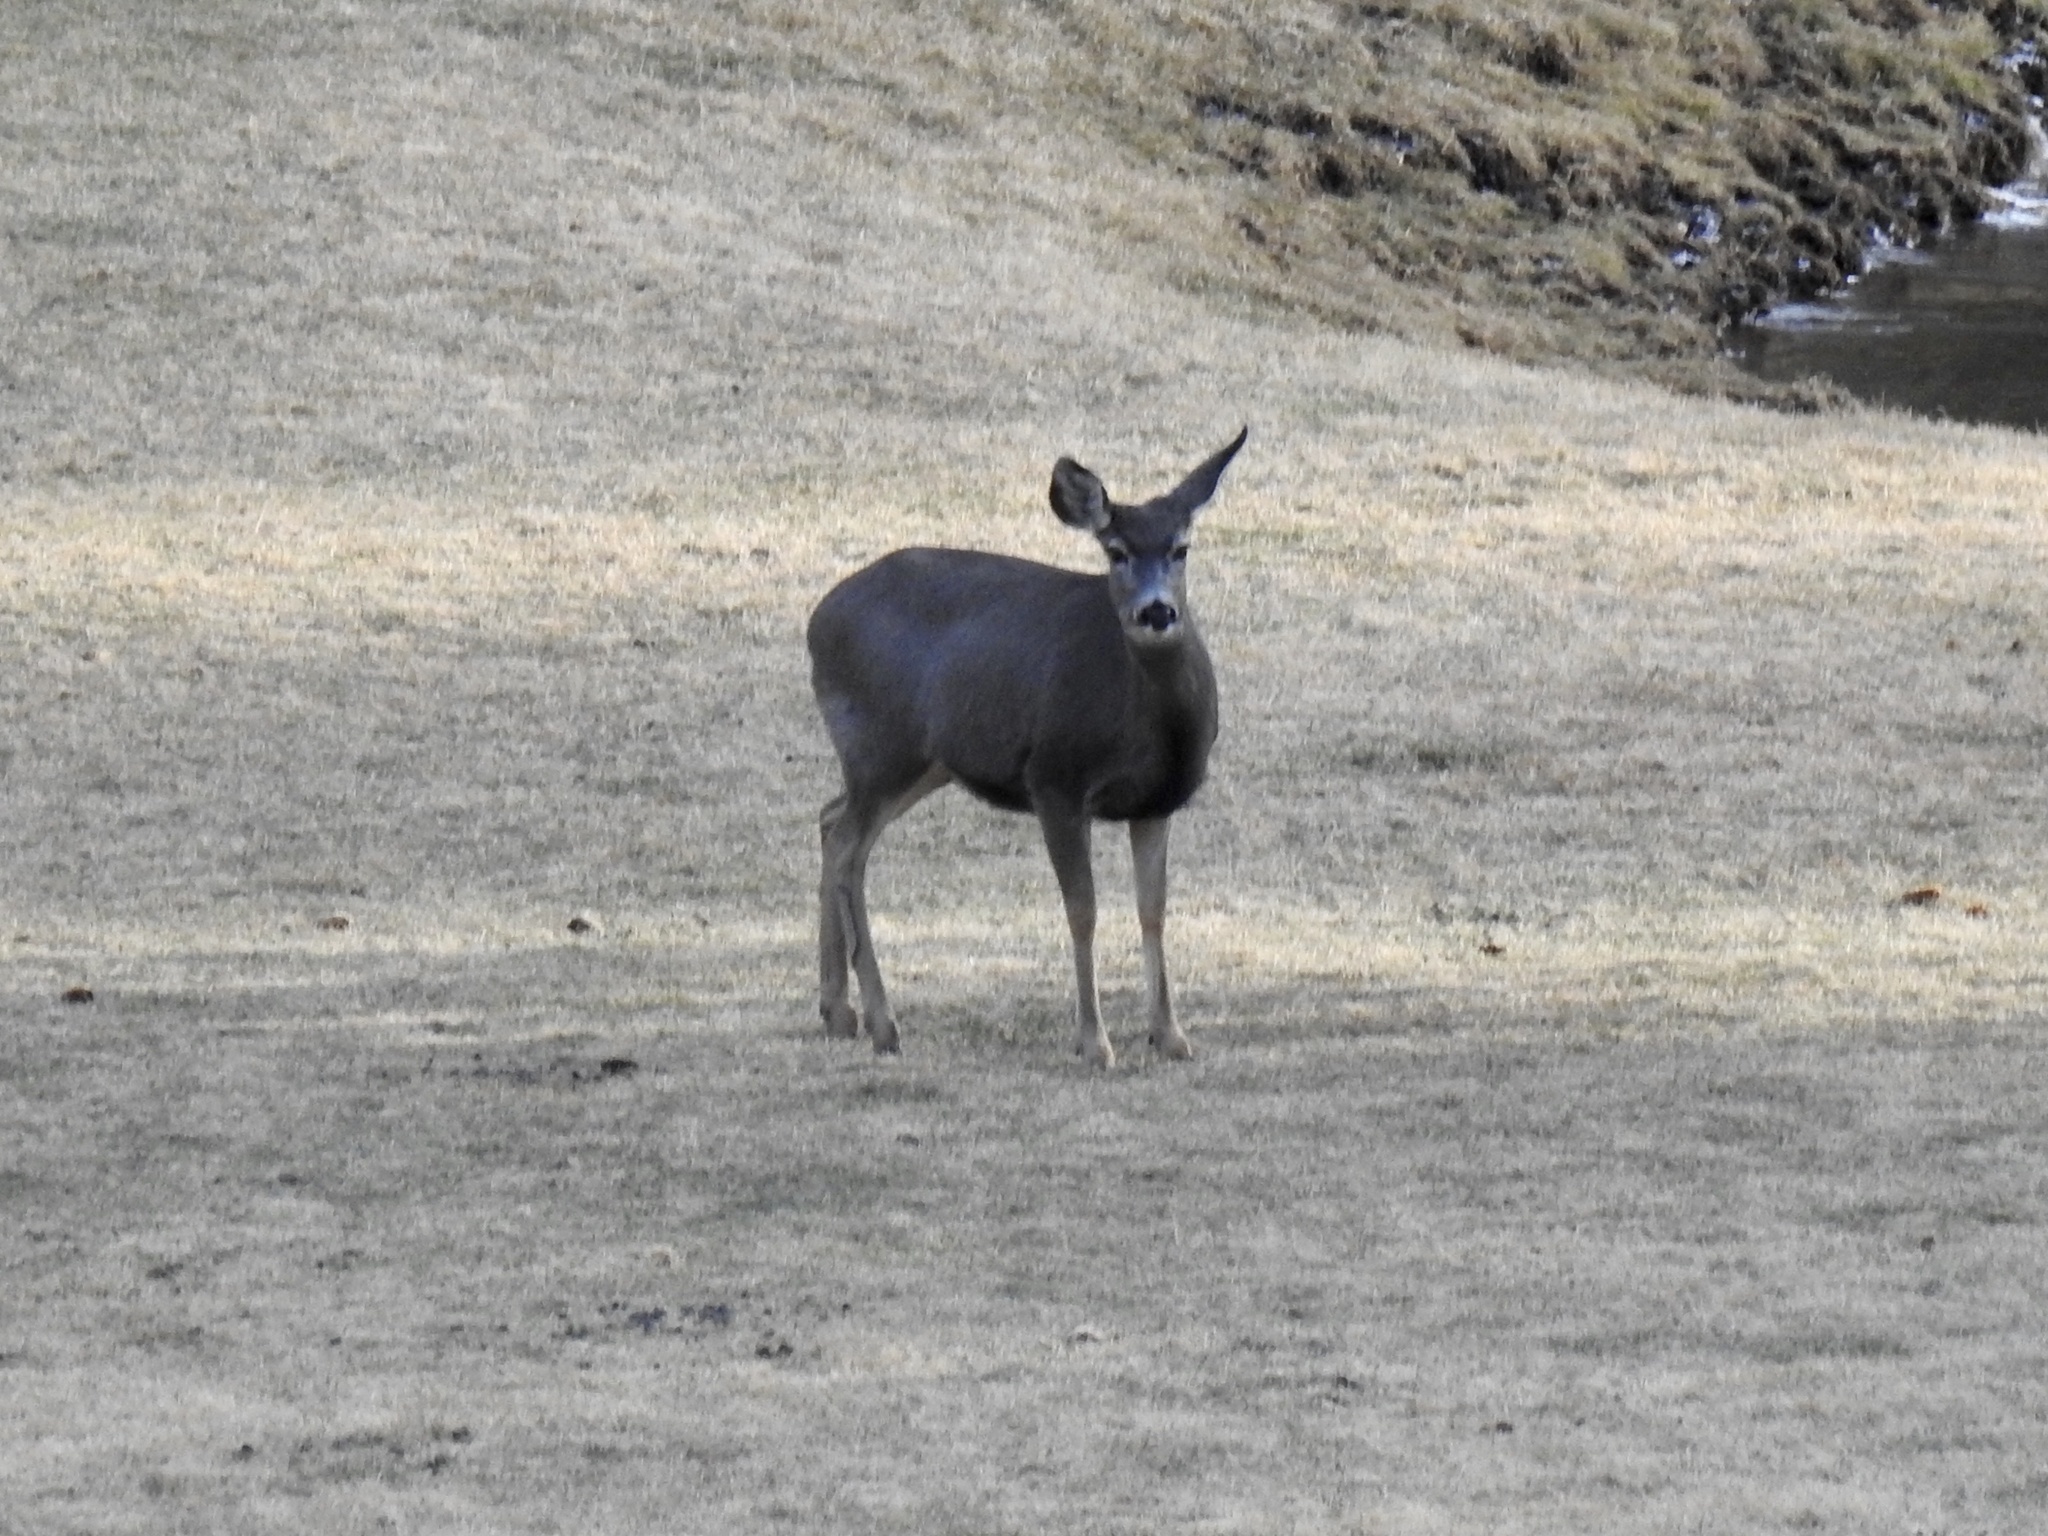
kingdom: Animalia
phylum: Chordata
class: Mammalia
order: Artiodactyla
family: Cervidae
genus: Odocoileus
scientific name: Odocoileus
